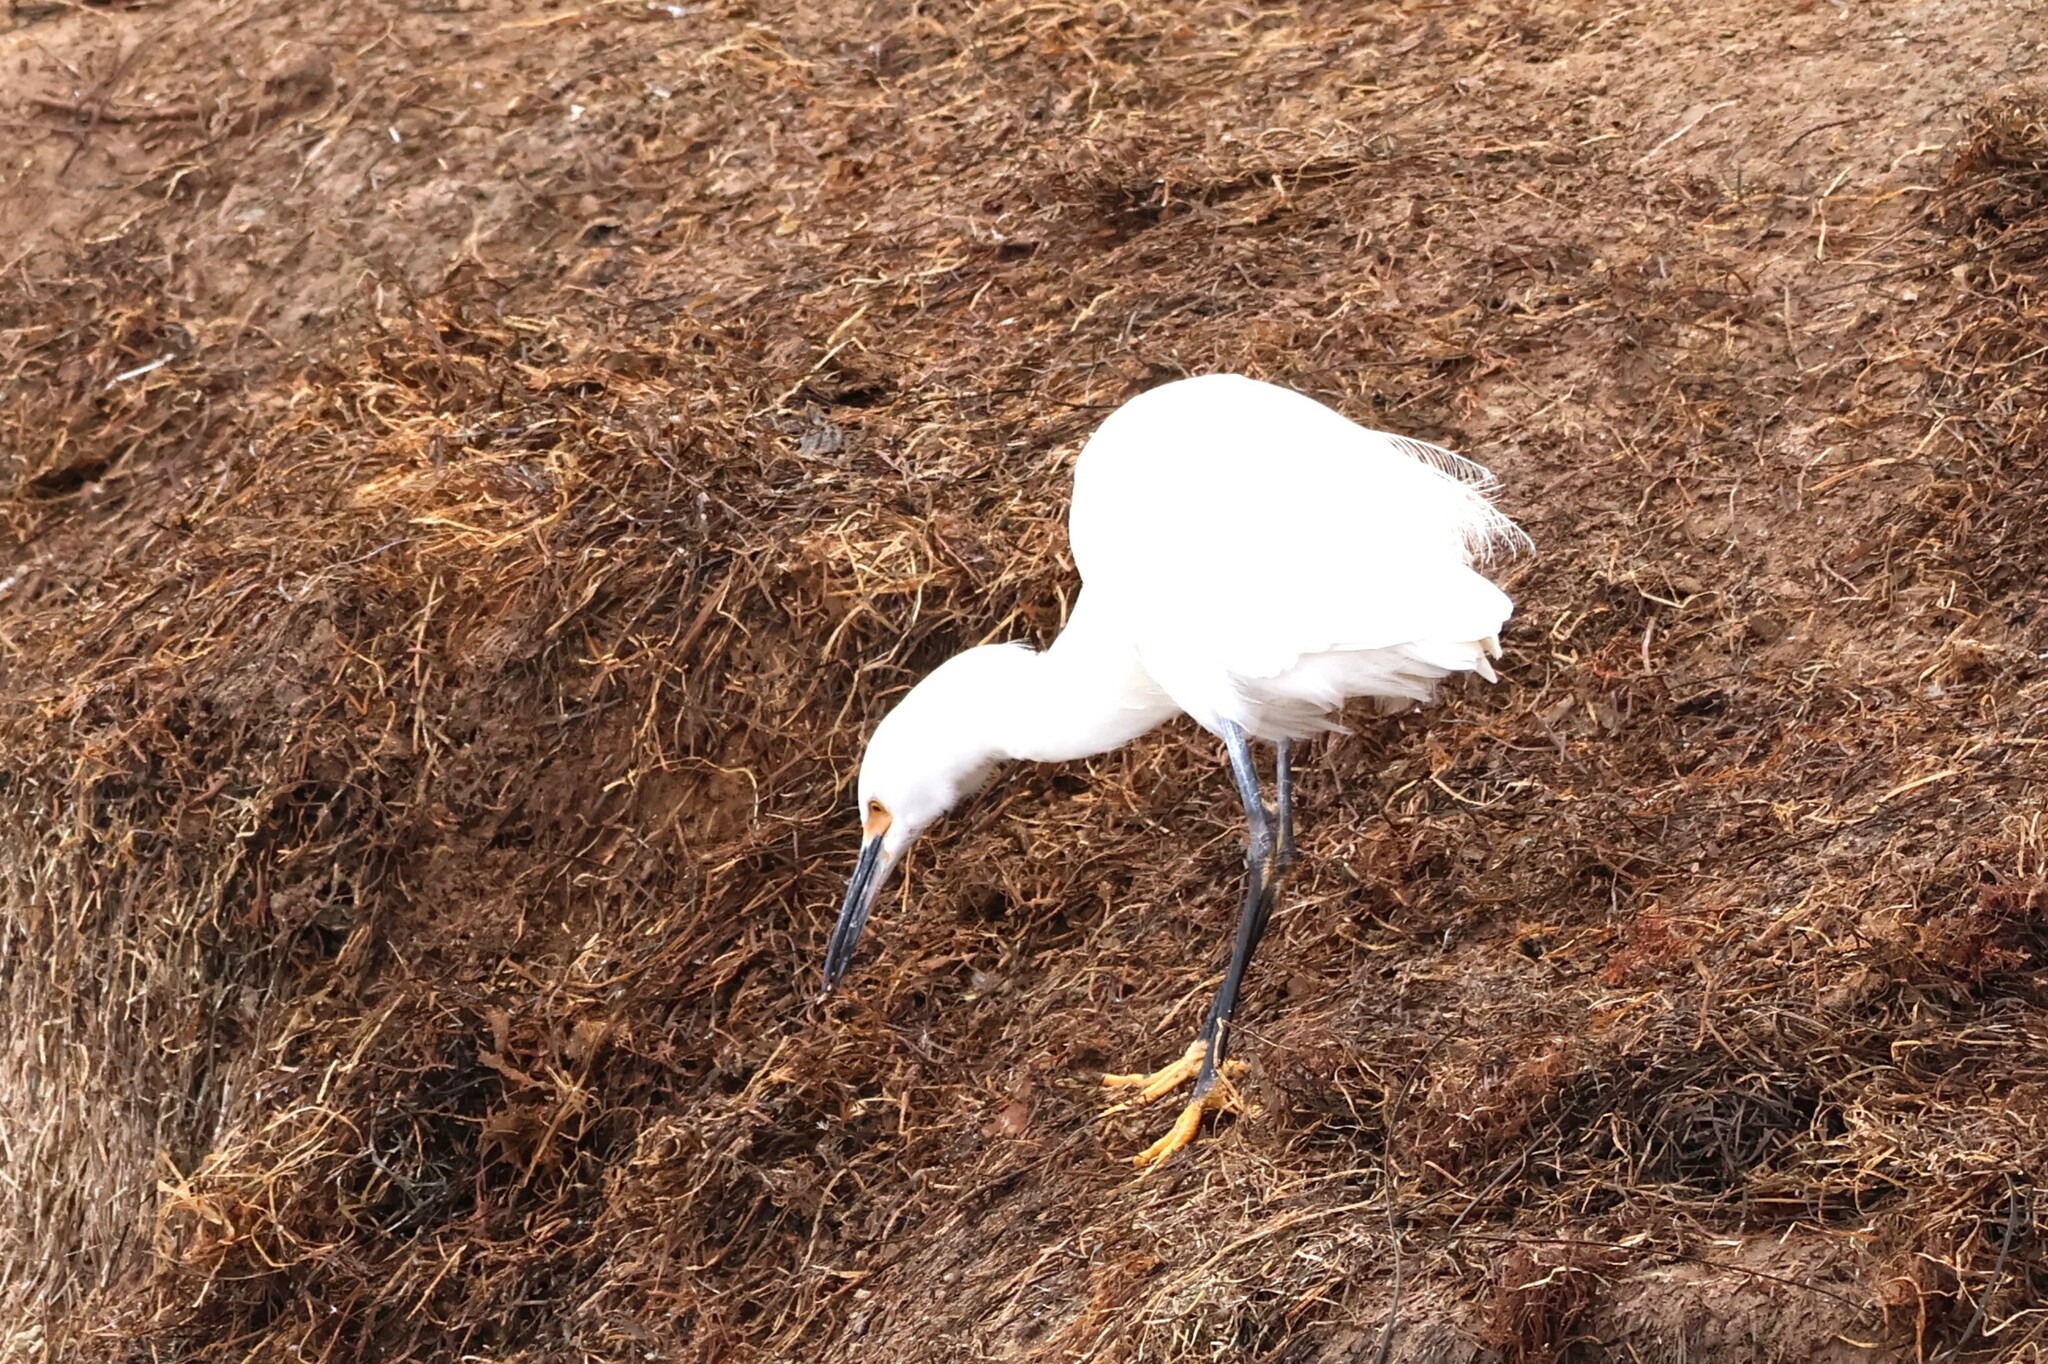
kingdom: Animalia
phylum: Chordata
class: Aves
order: Pelecaniformes
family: Ardeidae
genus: Egretta
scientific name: Egretta thula
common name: Snowy egret
